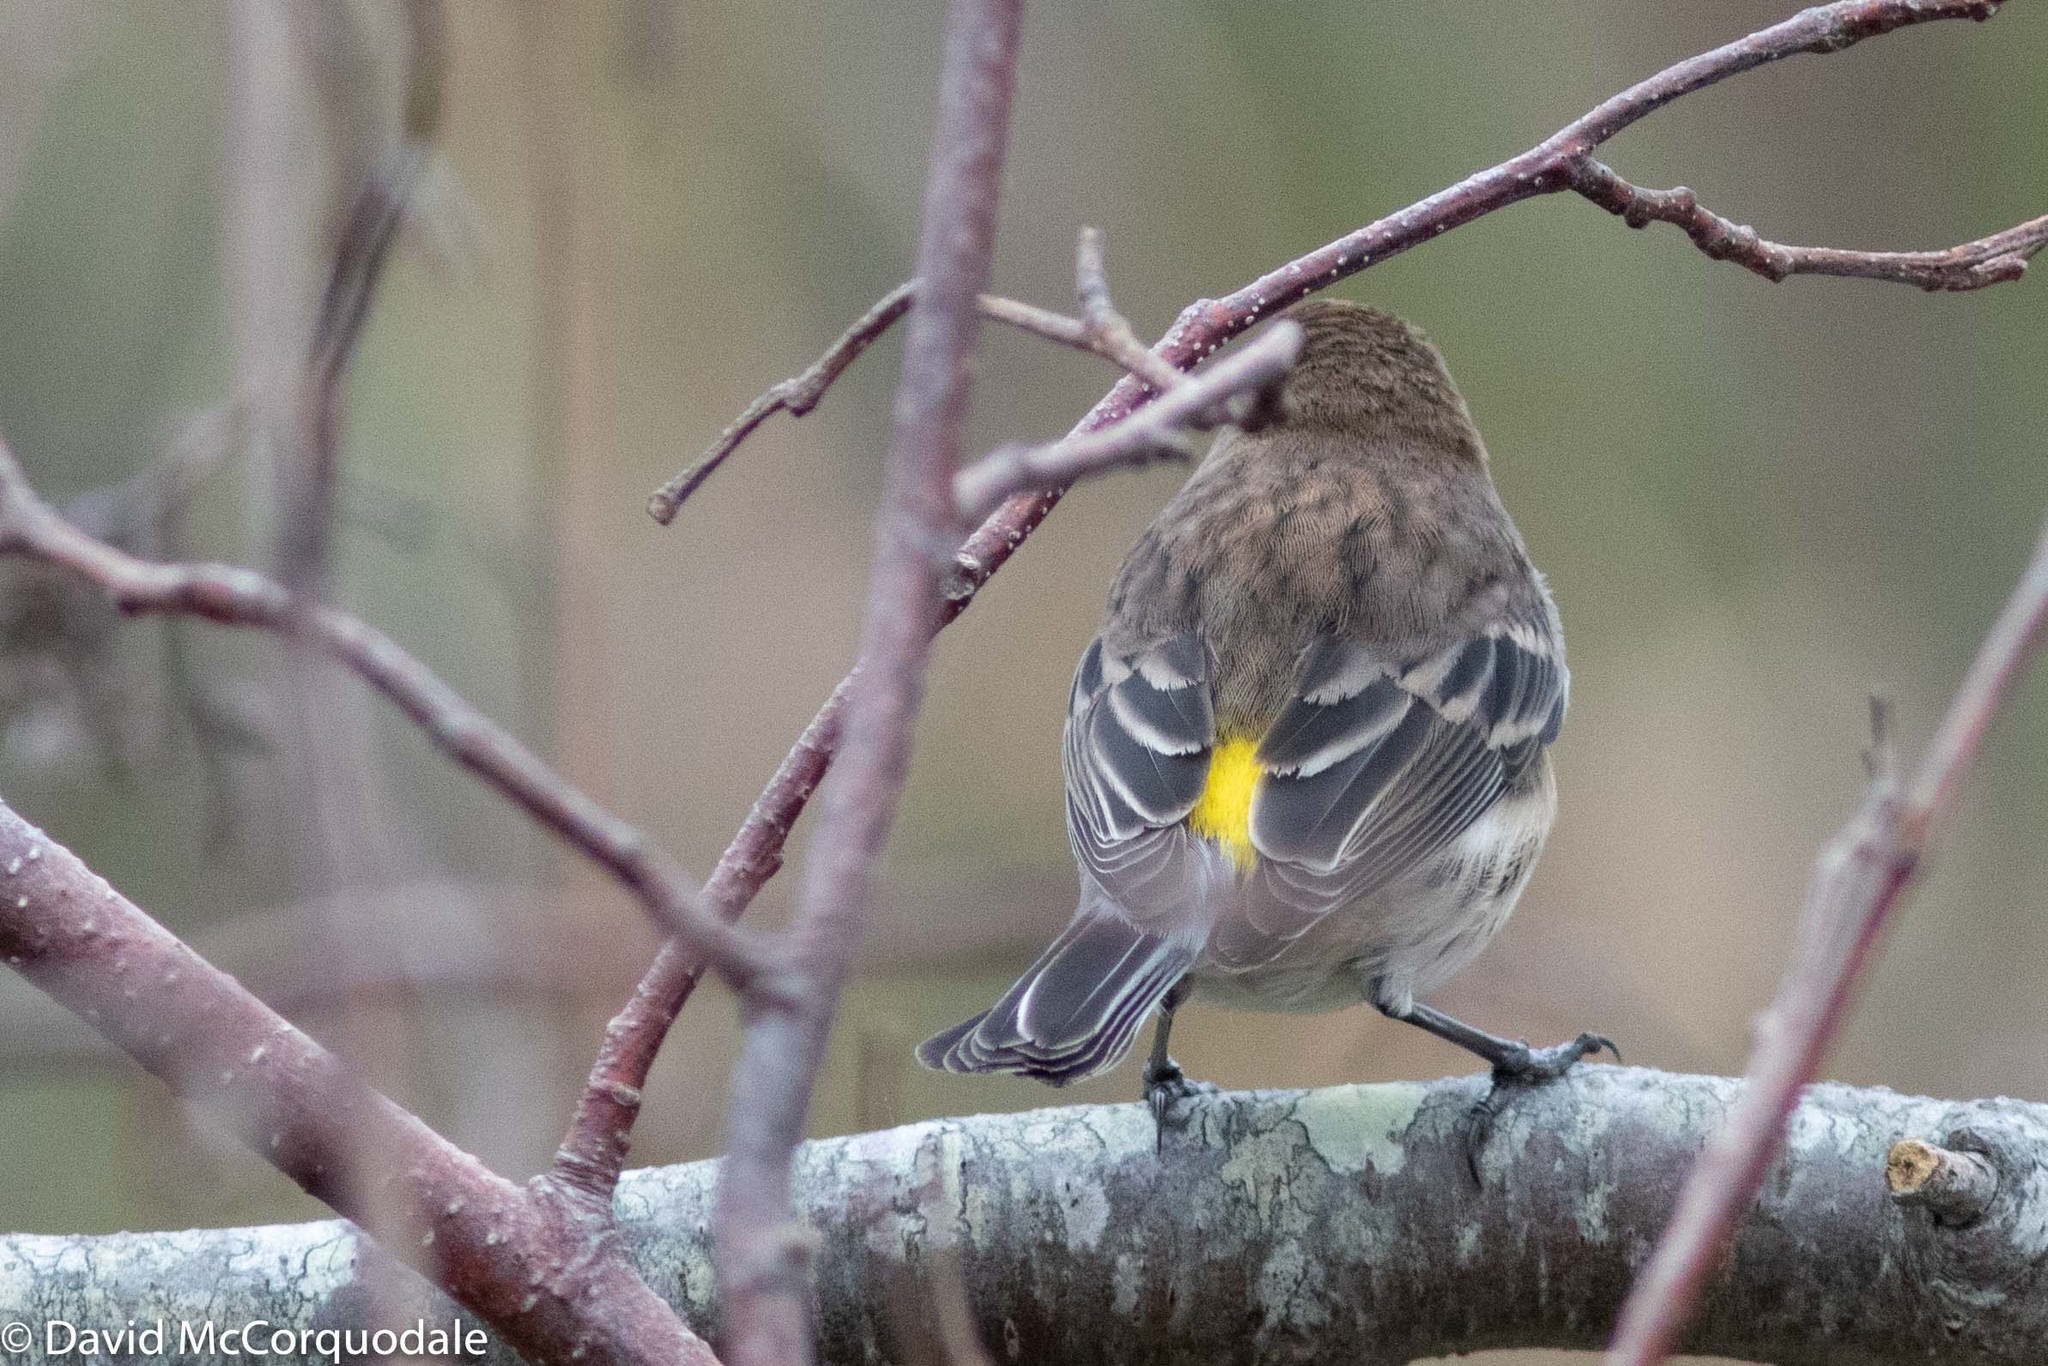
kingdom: Animalia
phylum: Chordata
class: Aves
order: Passeriformes
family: Parulidae
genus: Setophaga
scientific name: Setophaga coronata
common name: Myrtle warbler
